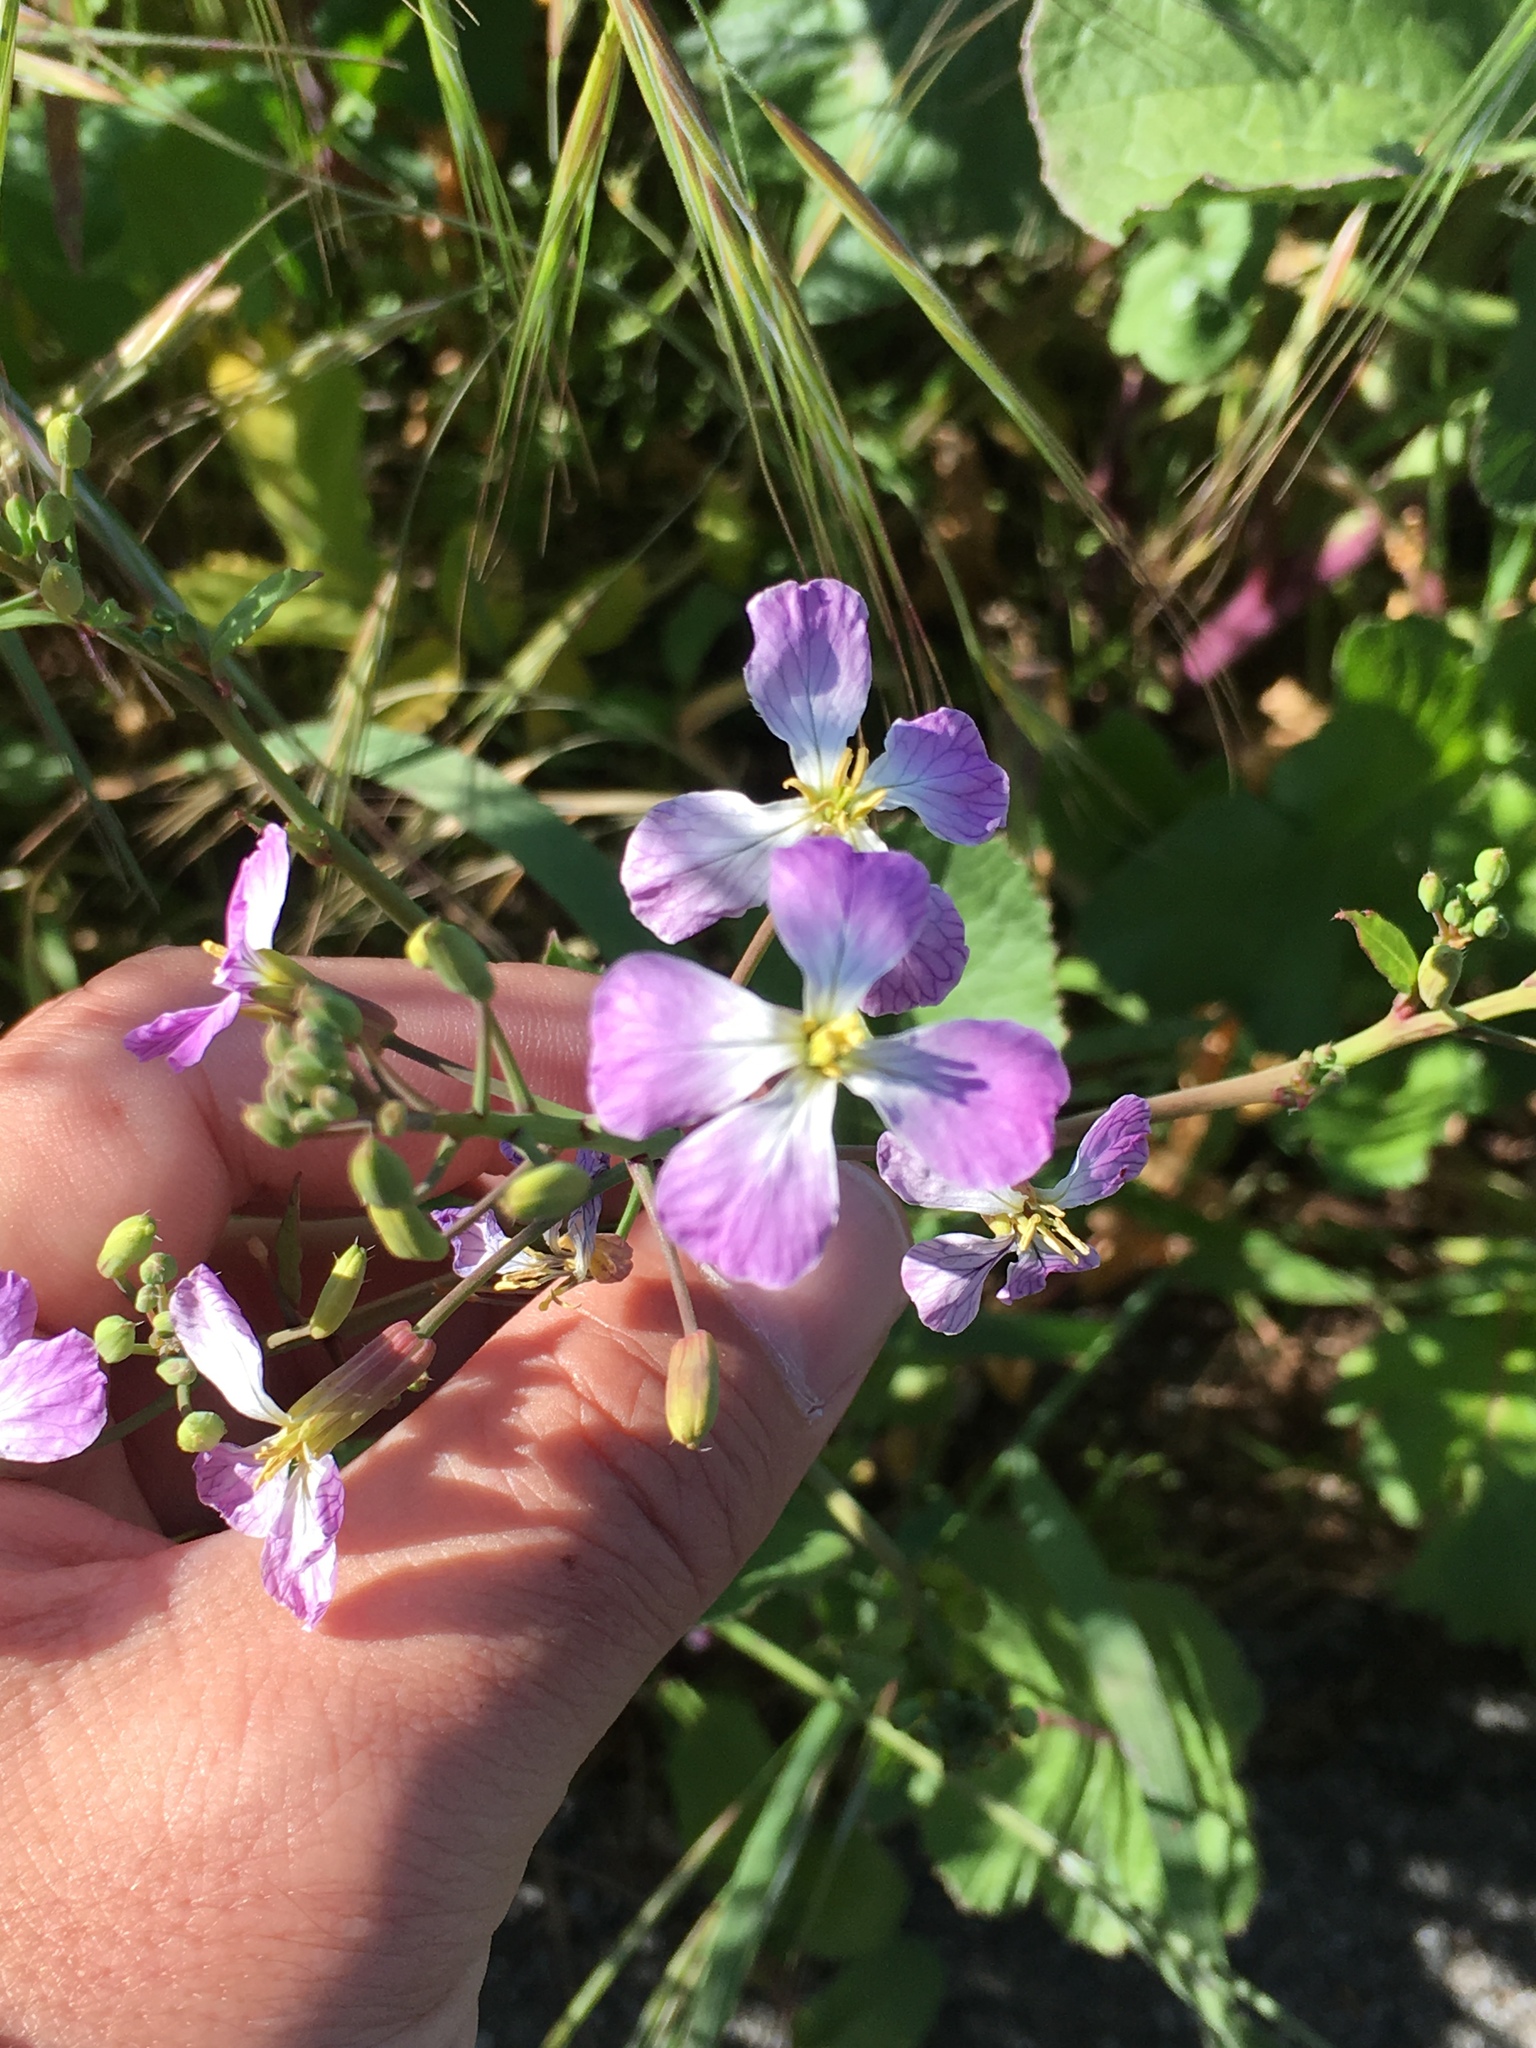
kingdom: Plantae
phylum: Tracheophyta
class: Magnoliopsida
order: Brassicales
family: Brassicaceae
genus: Raphanus
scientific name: Raphanus sativus
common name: Cultivated radish
